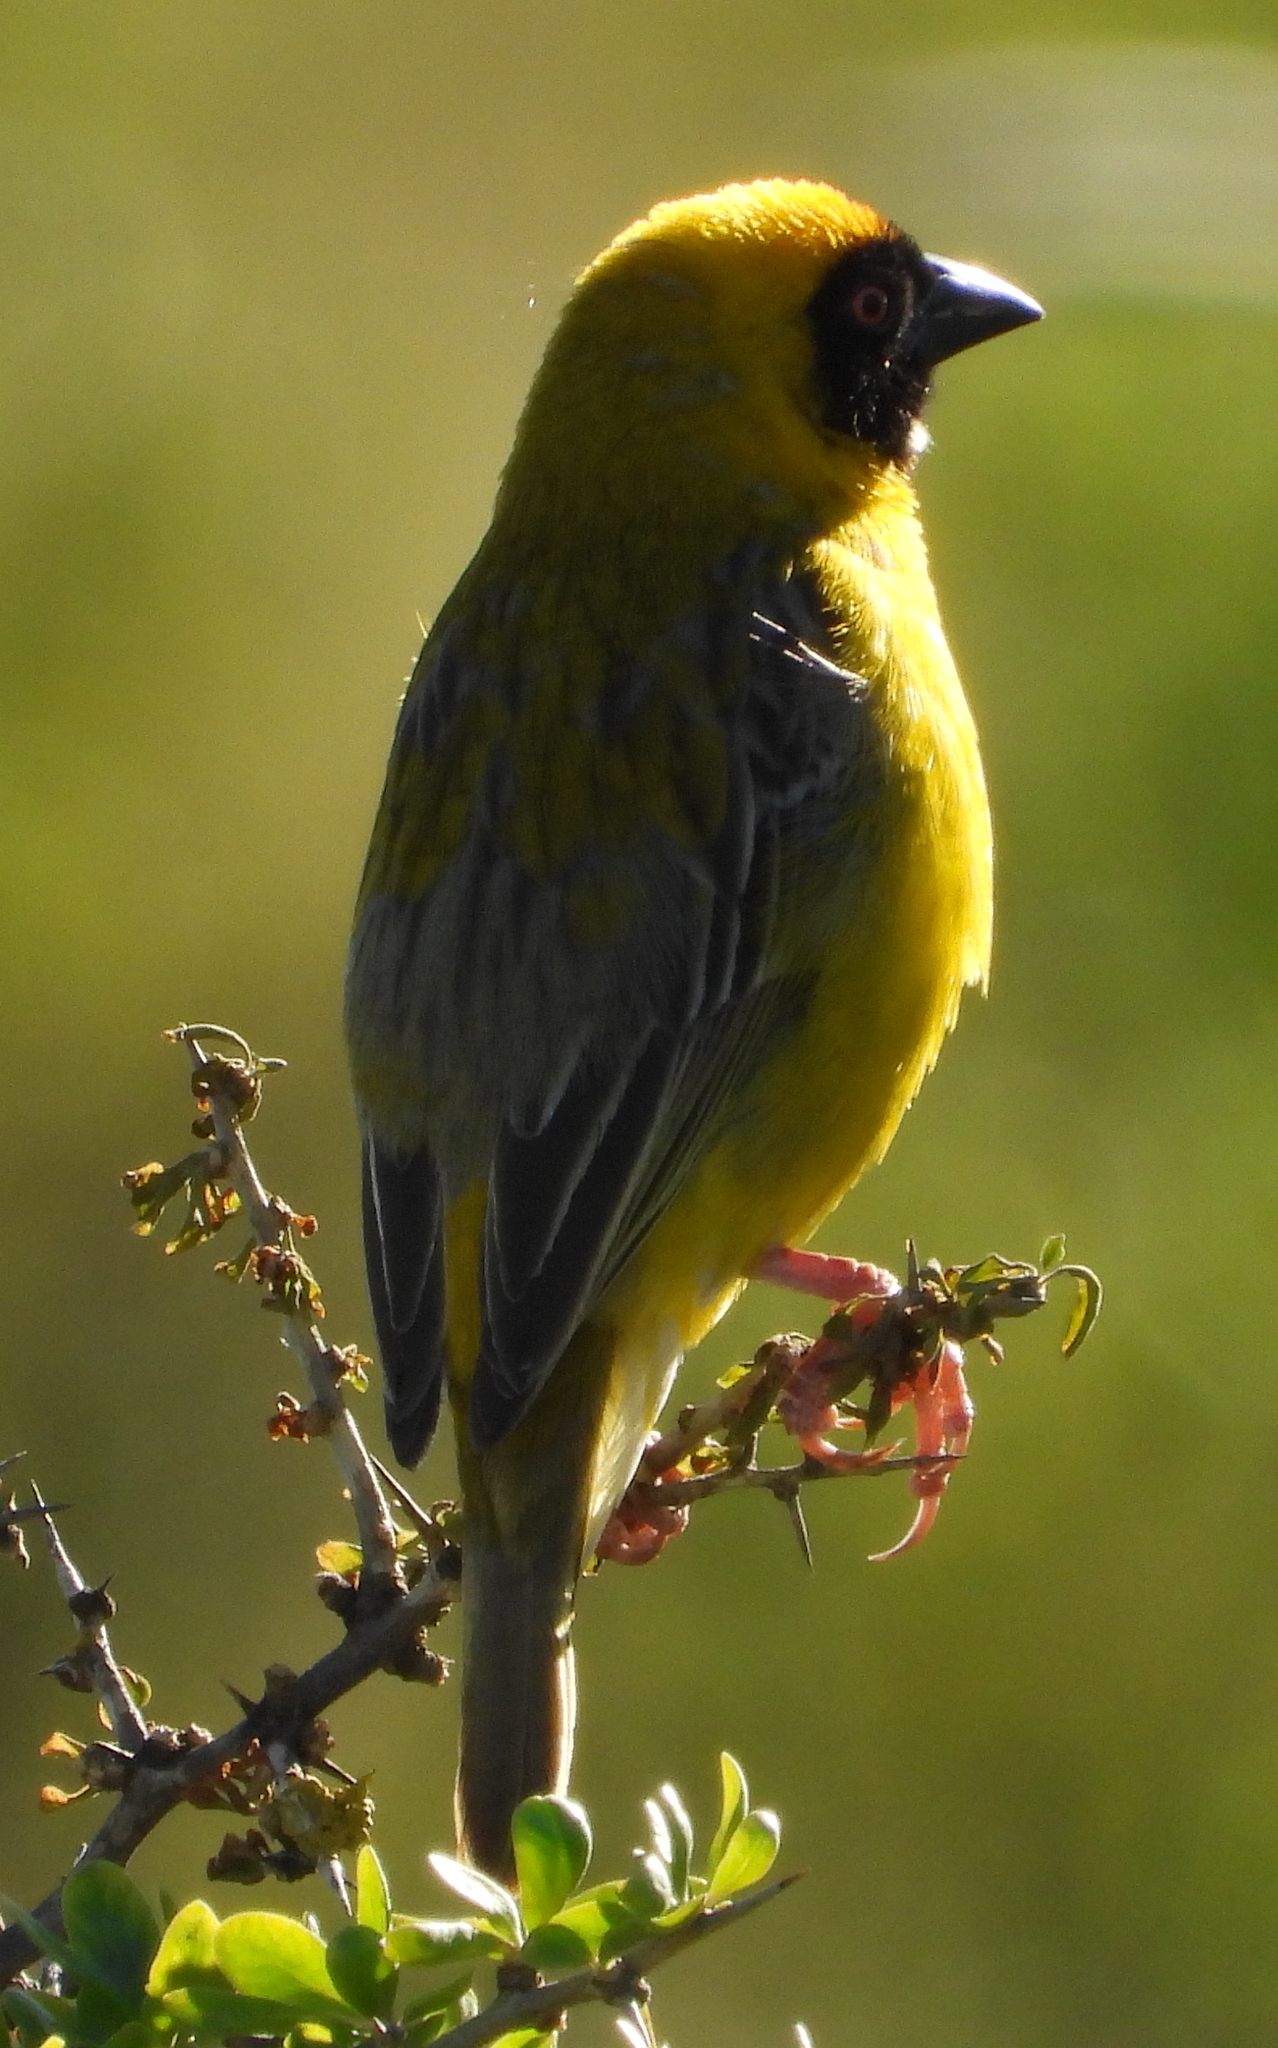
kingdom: Animalia
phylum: Chordata
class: Aves
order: Passeriformes
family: Ploceidae
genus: Ploceus
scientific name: Ploceus velatus
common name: Southern masked weaver
